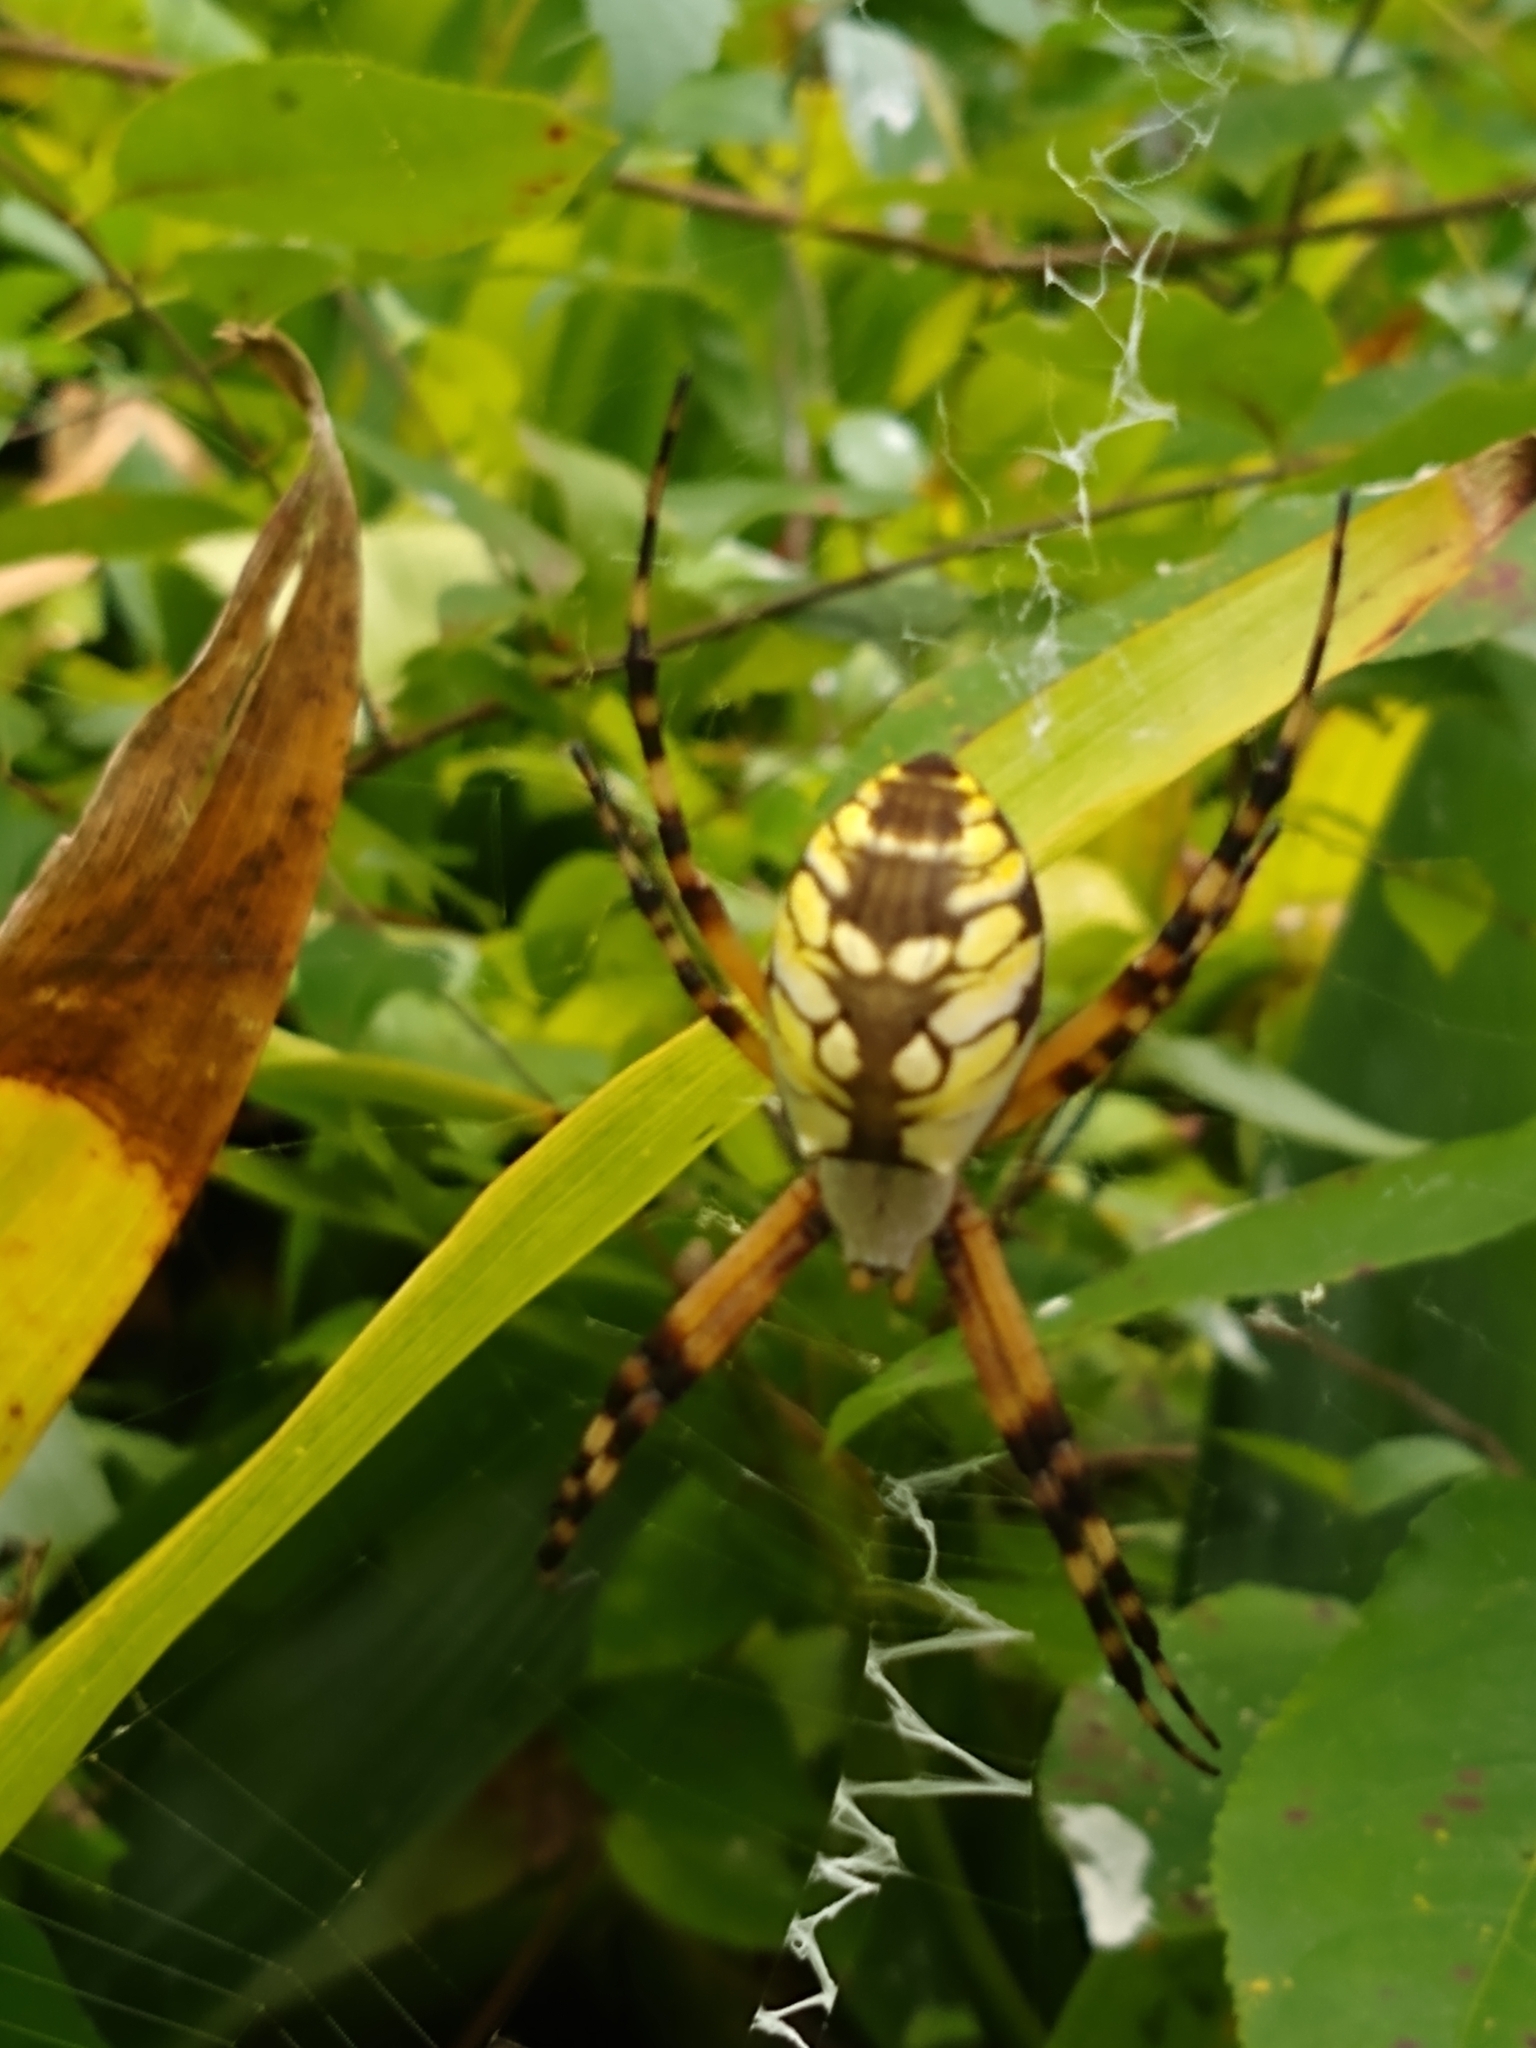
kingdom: Animalia
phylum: Arthropoda
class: Arachnida
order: Araneae
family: Araneidae
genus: Argiope
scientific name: Argiope aurantia
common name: Orb weavers
